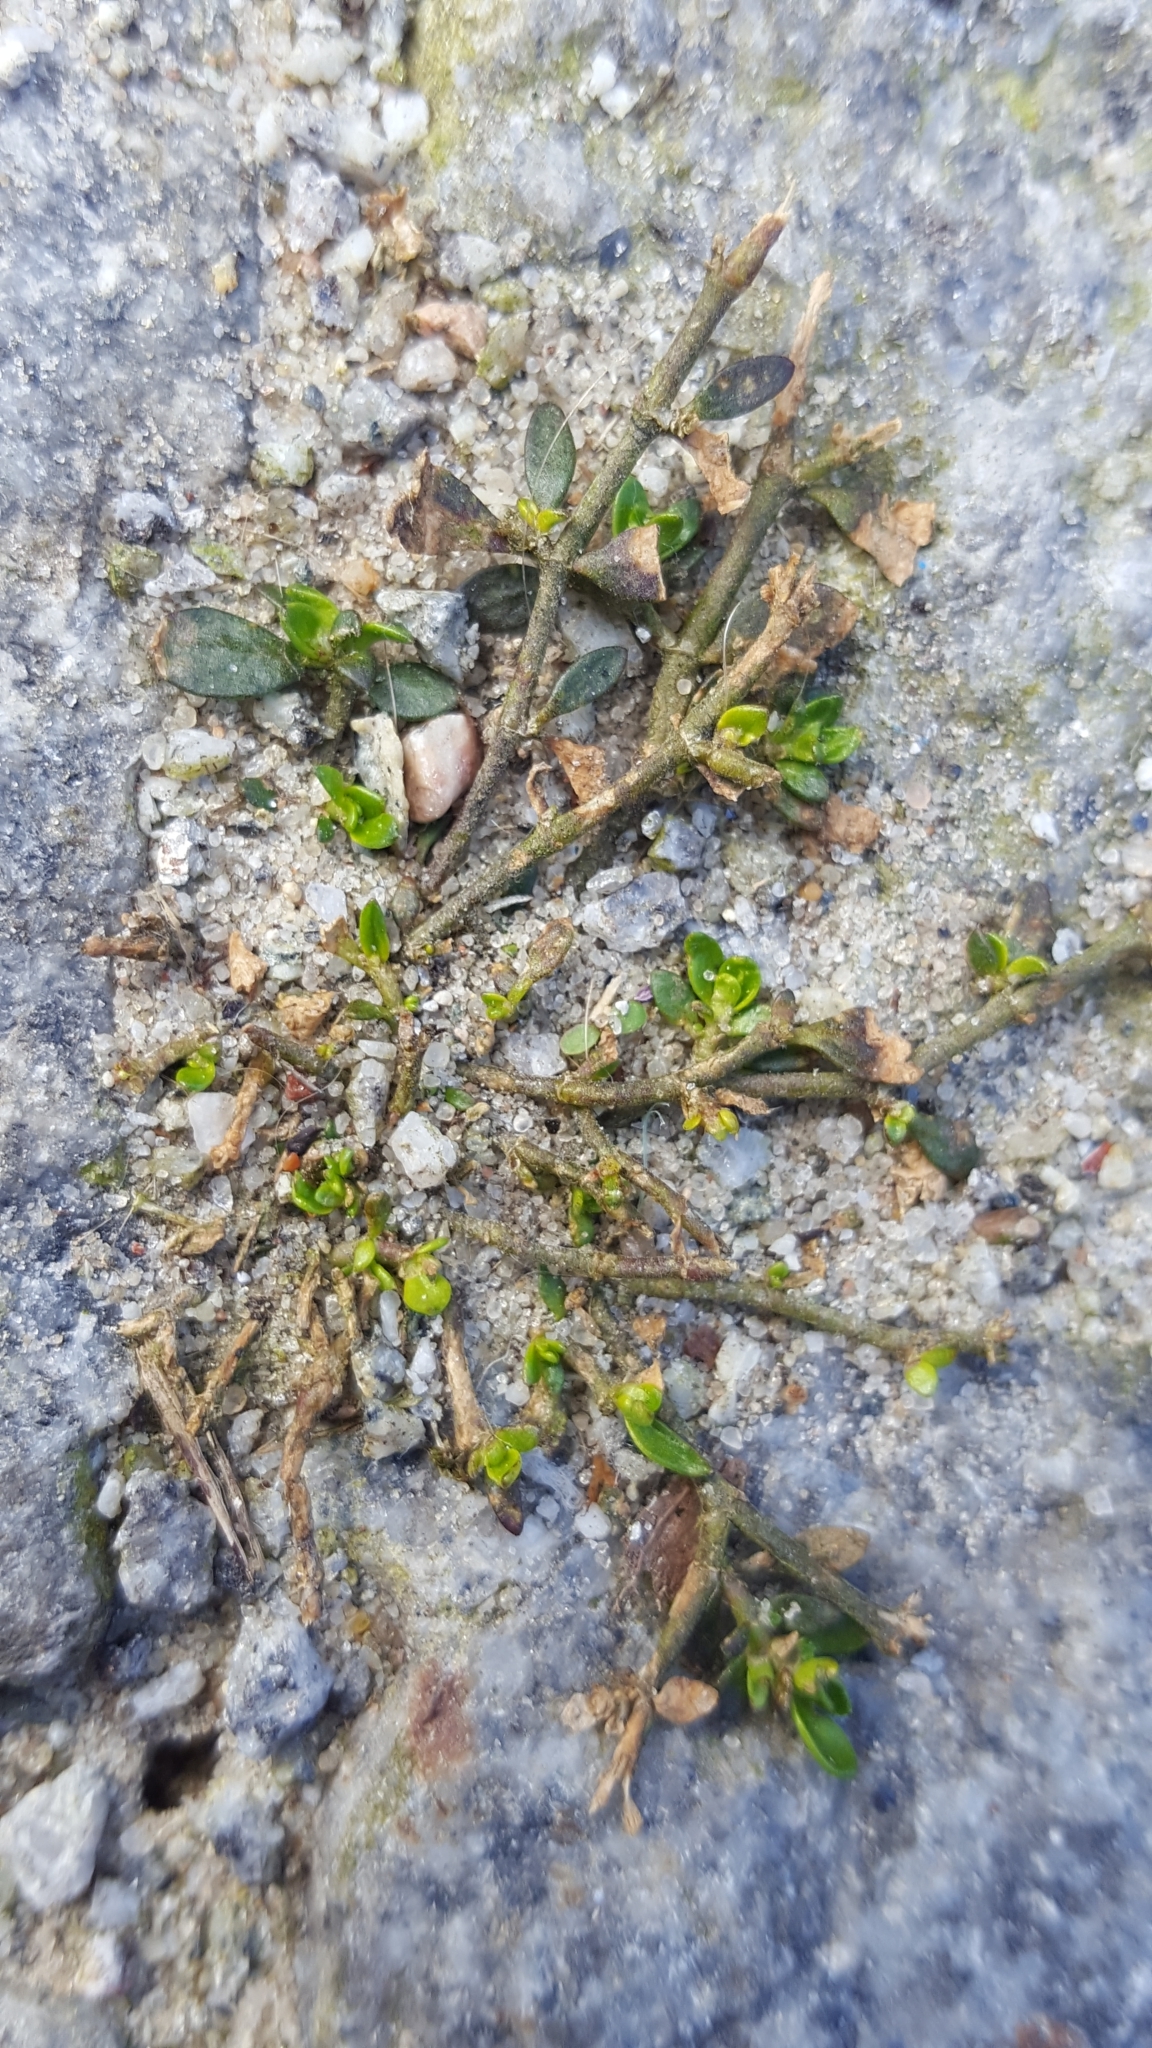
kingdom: Plantae
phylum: Tracheophyta
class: Magnoliopsida
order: Caryophyllales
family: Caryophyllaceae
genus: Herniaria
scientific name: Herniaria glabra
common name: Smooth rupturewort
